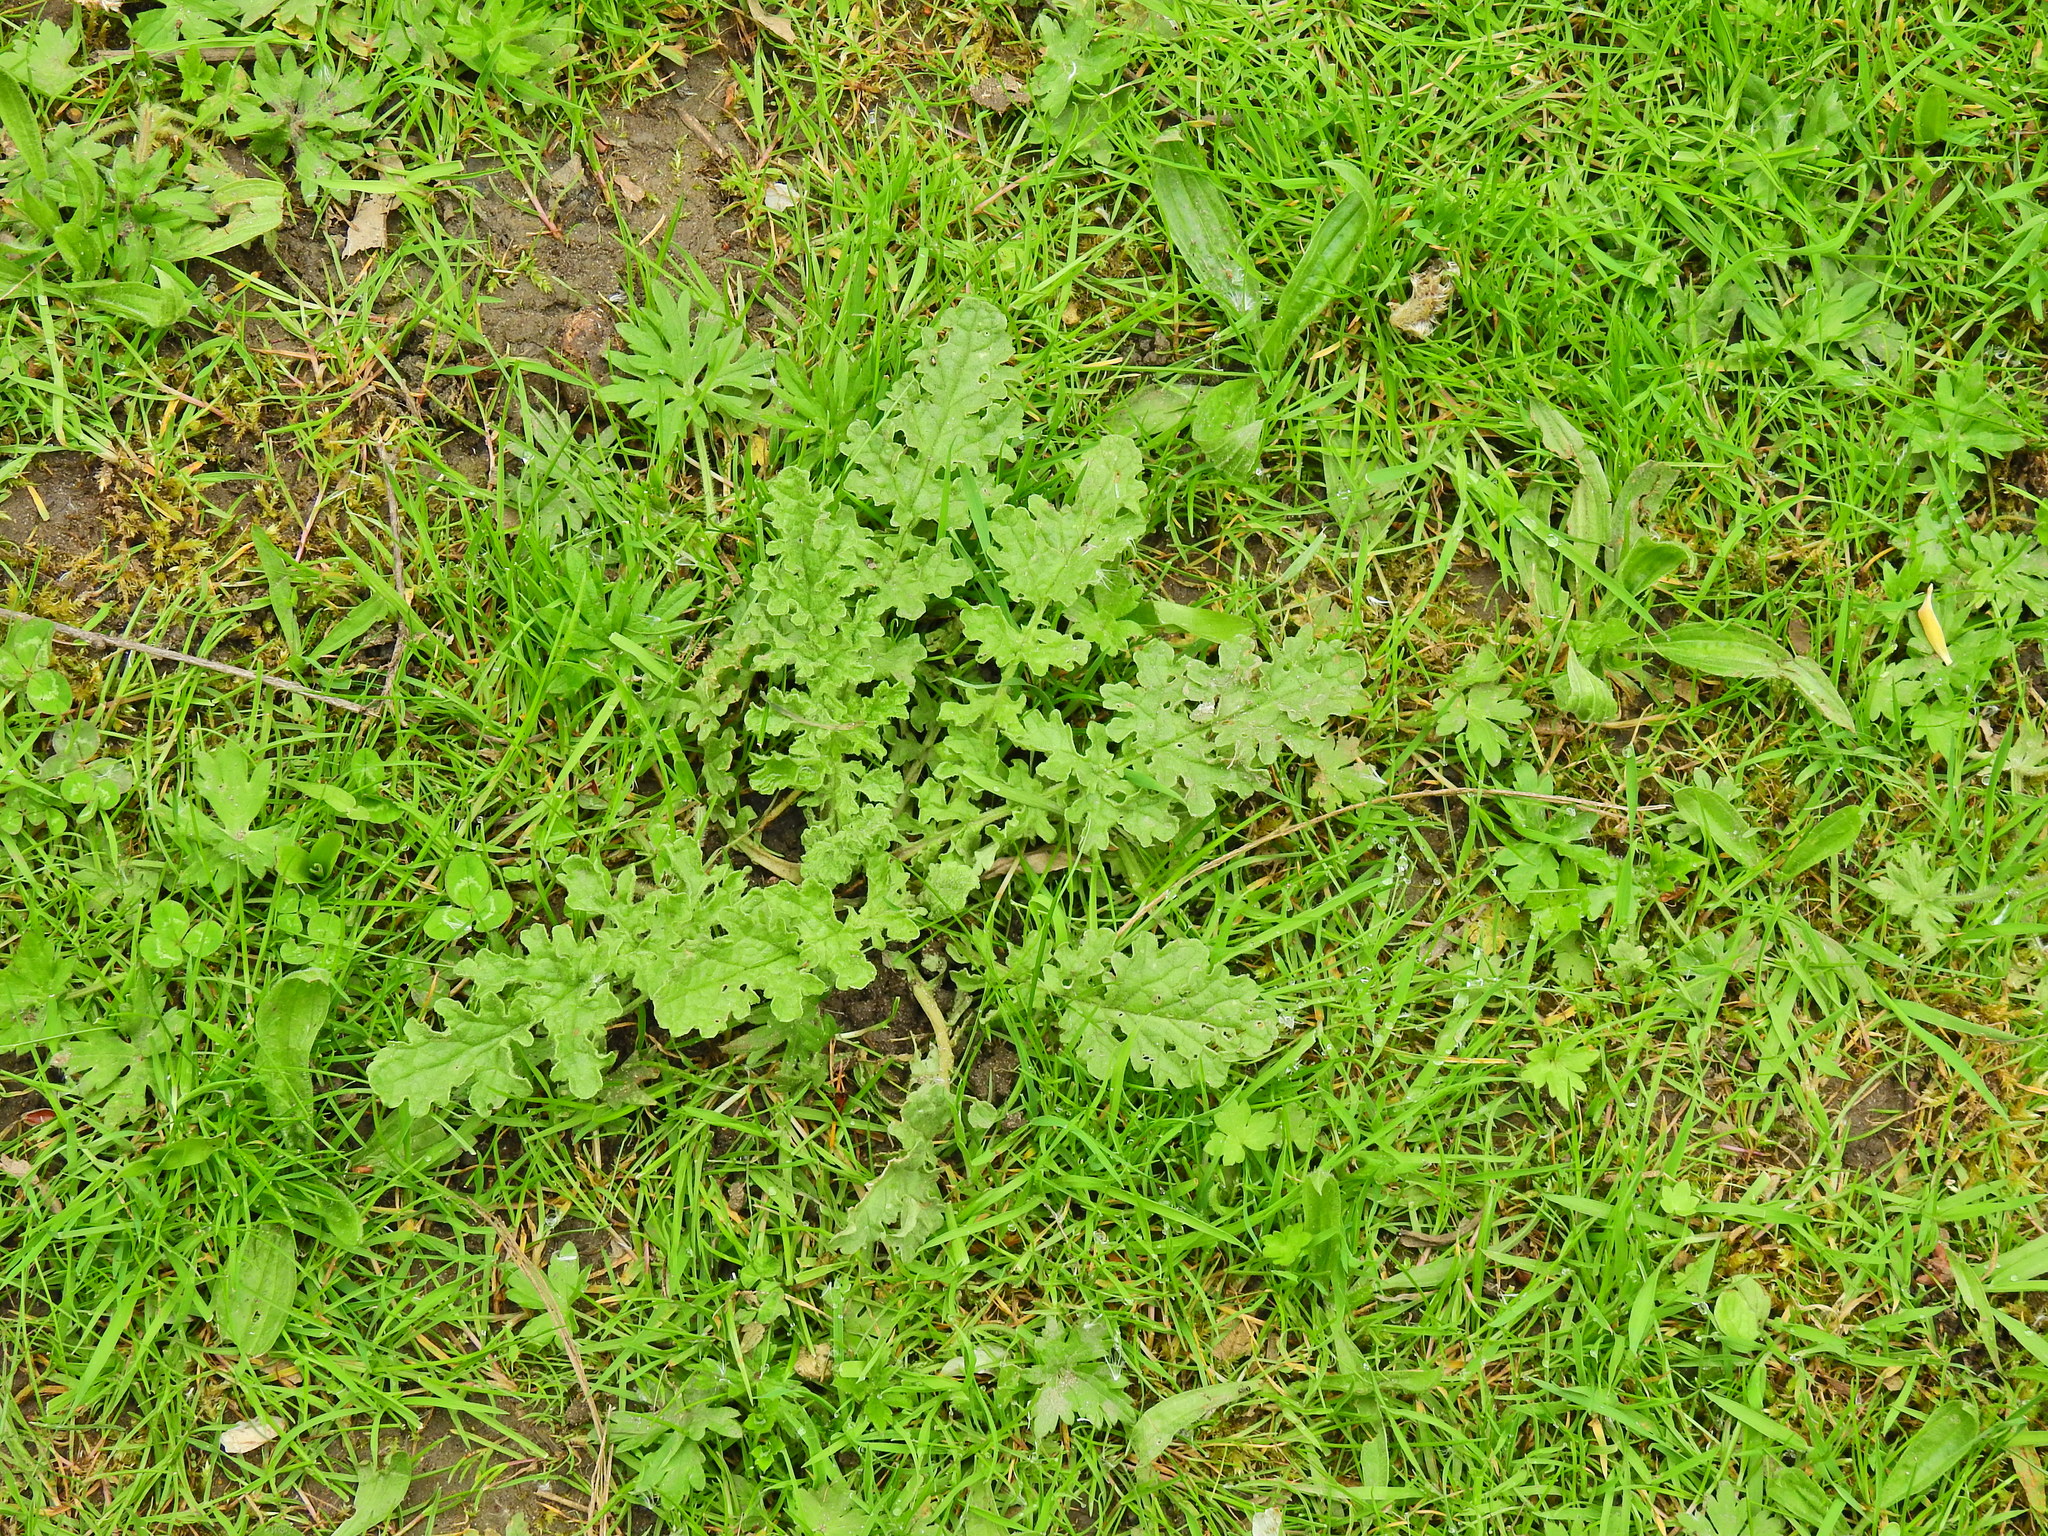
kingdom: Plantae
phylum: Tracheophyta
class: Magnoliopsida
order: Asterales
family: Asteraceae
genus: Jacobaea
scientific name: Jacobaea vulgaris
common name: Stinking willie
